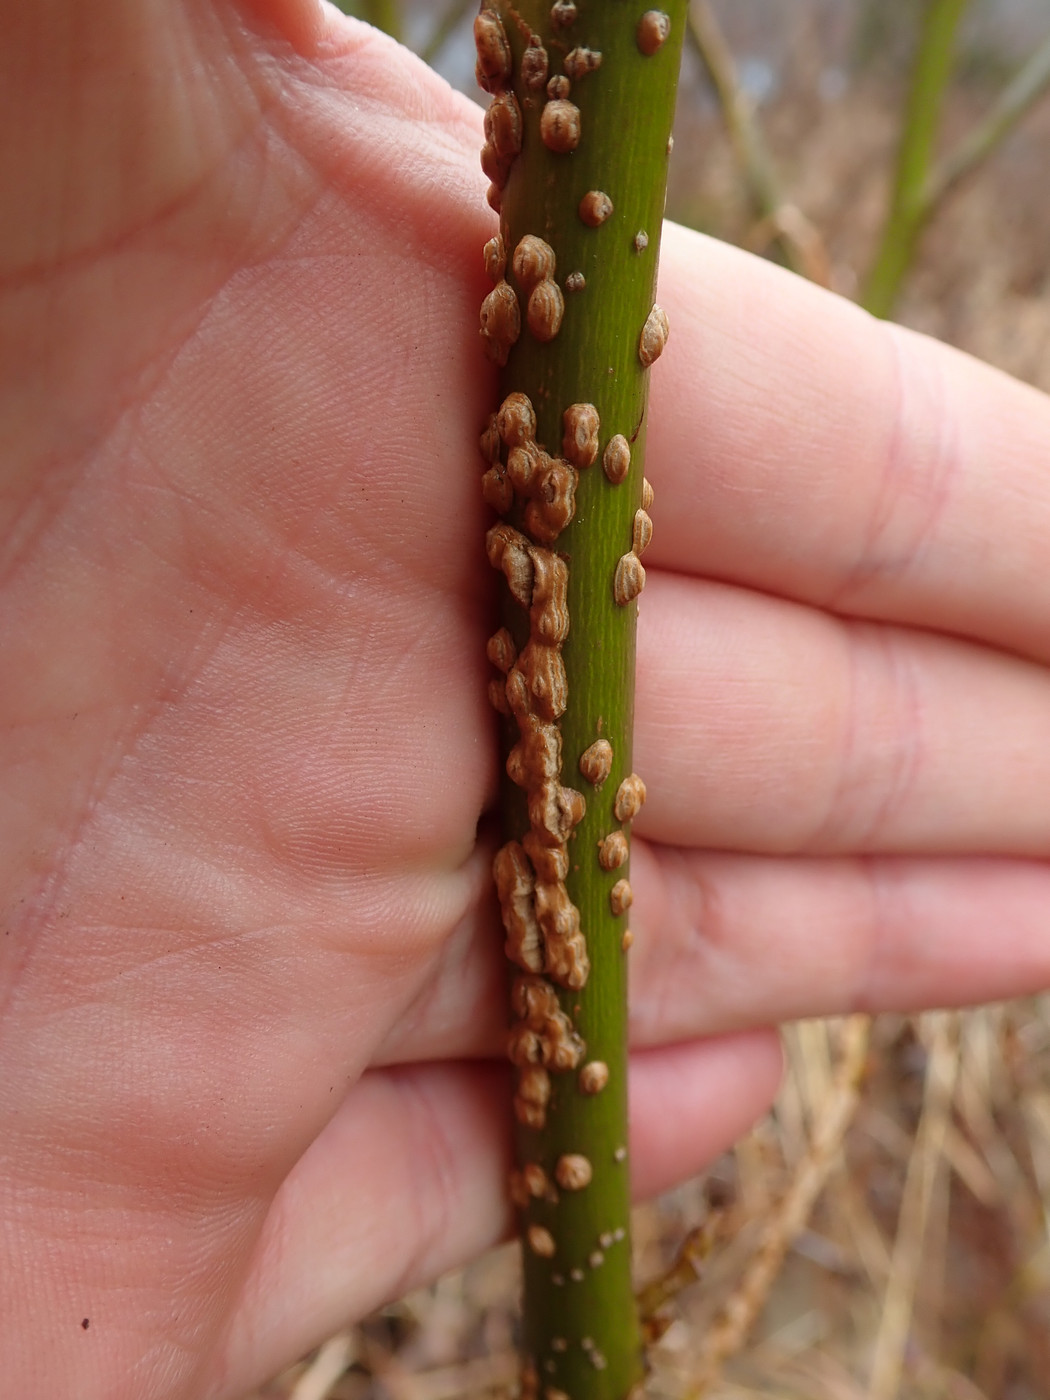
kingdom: Plantae
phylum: Tracheophyta
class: Magnoliopsida
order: Saxifragales
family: Altingiaceae
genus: Liquidambar
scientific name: Liquidambar styraciflua
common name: Sweet gum
